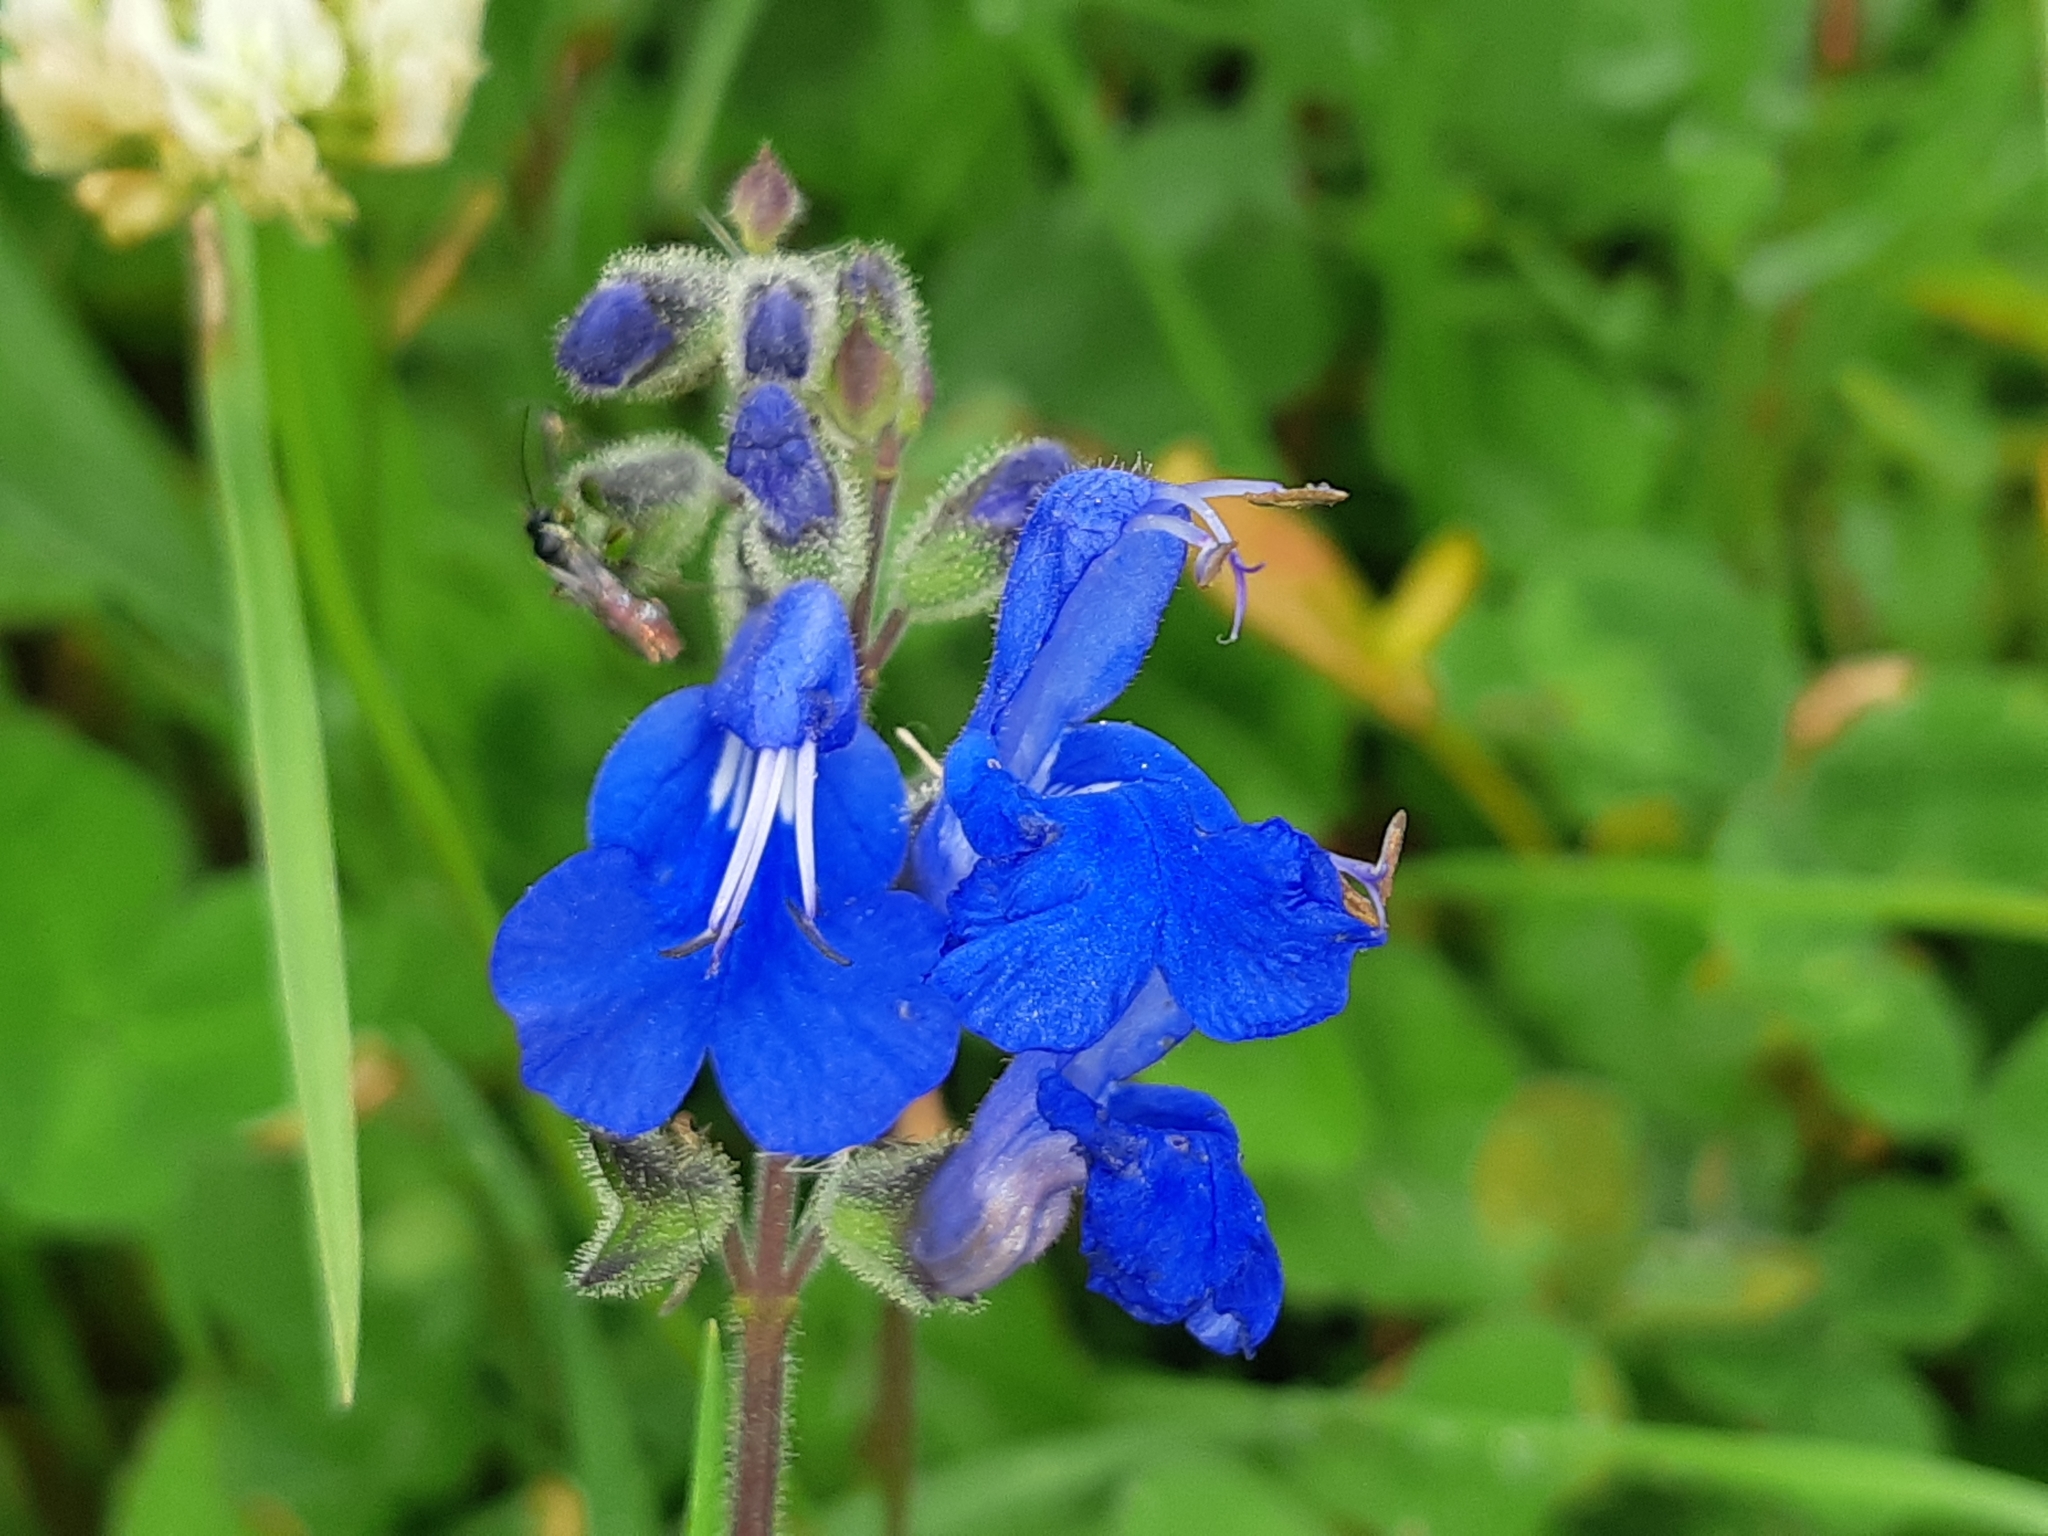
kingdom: Plantae
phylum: Tracheophyta
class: Magnoliopsida
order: Lamiales
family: Lamiaceae
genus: Salvia
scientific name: Salvia scutellarioides
